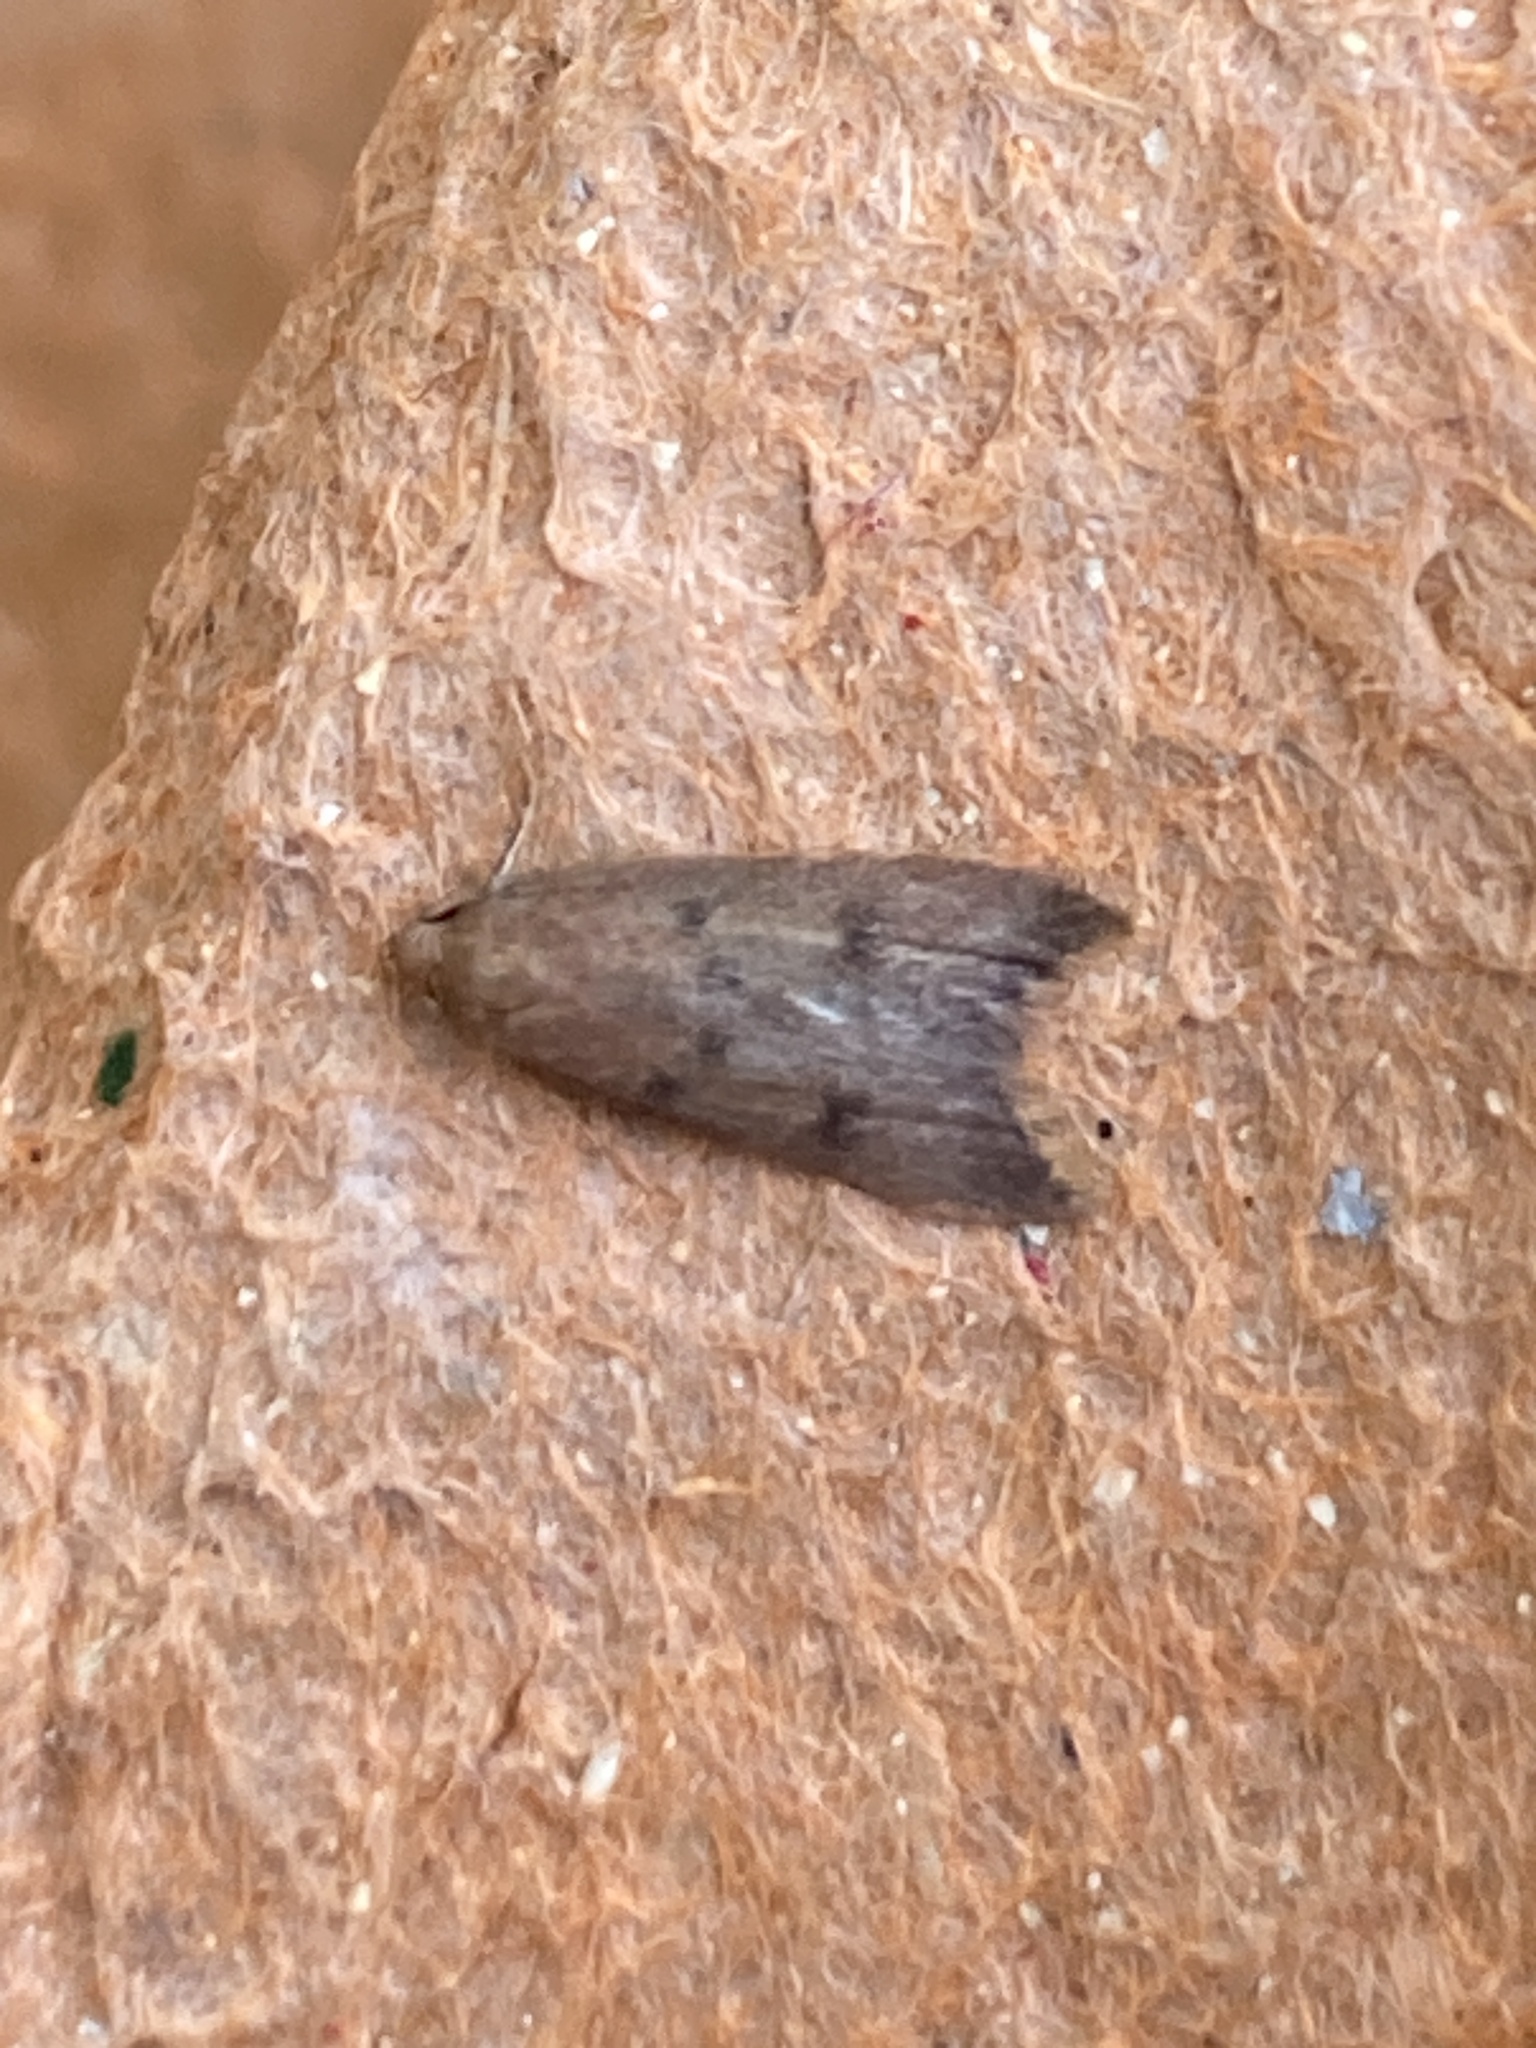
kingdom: Animalia
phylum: Arthropoda
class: Insecta
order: Lepidoptera
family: Oecophoridae
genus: Tachystola
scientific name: Tachystola acroxantha
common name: Ruddy streak
